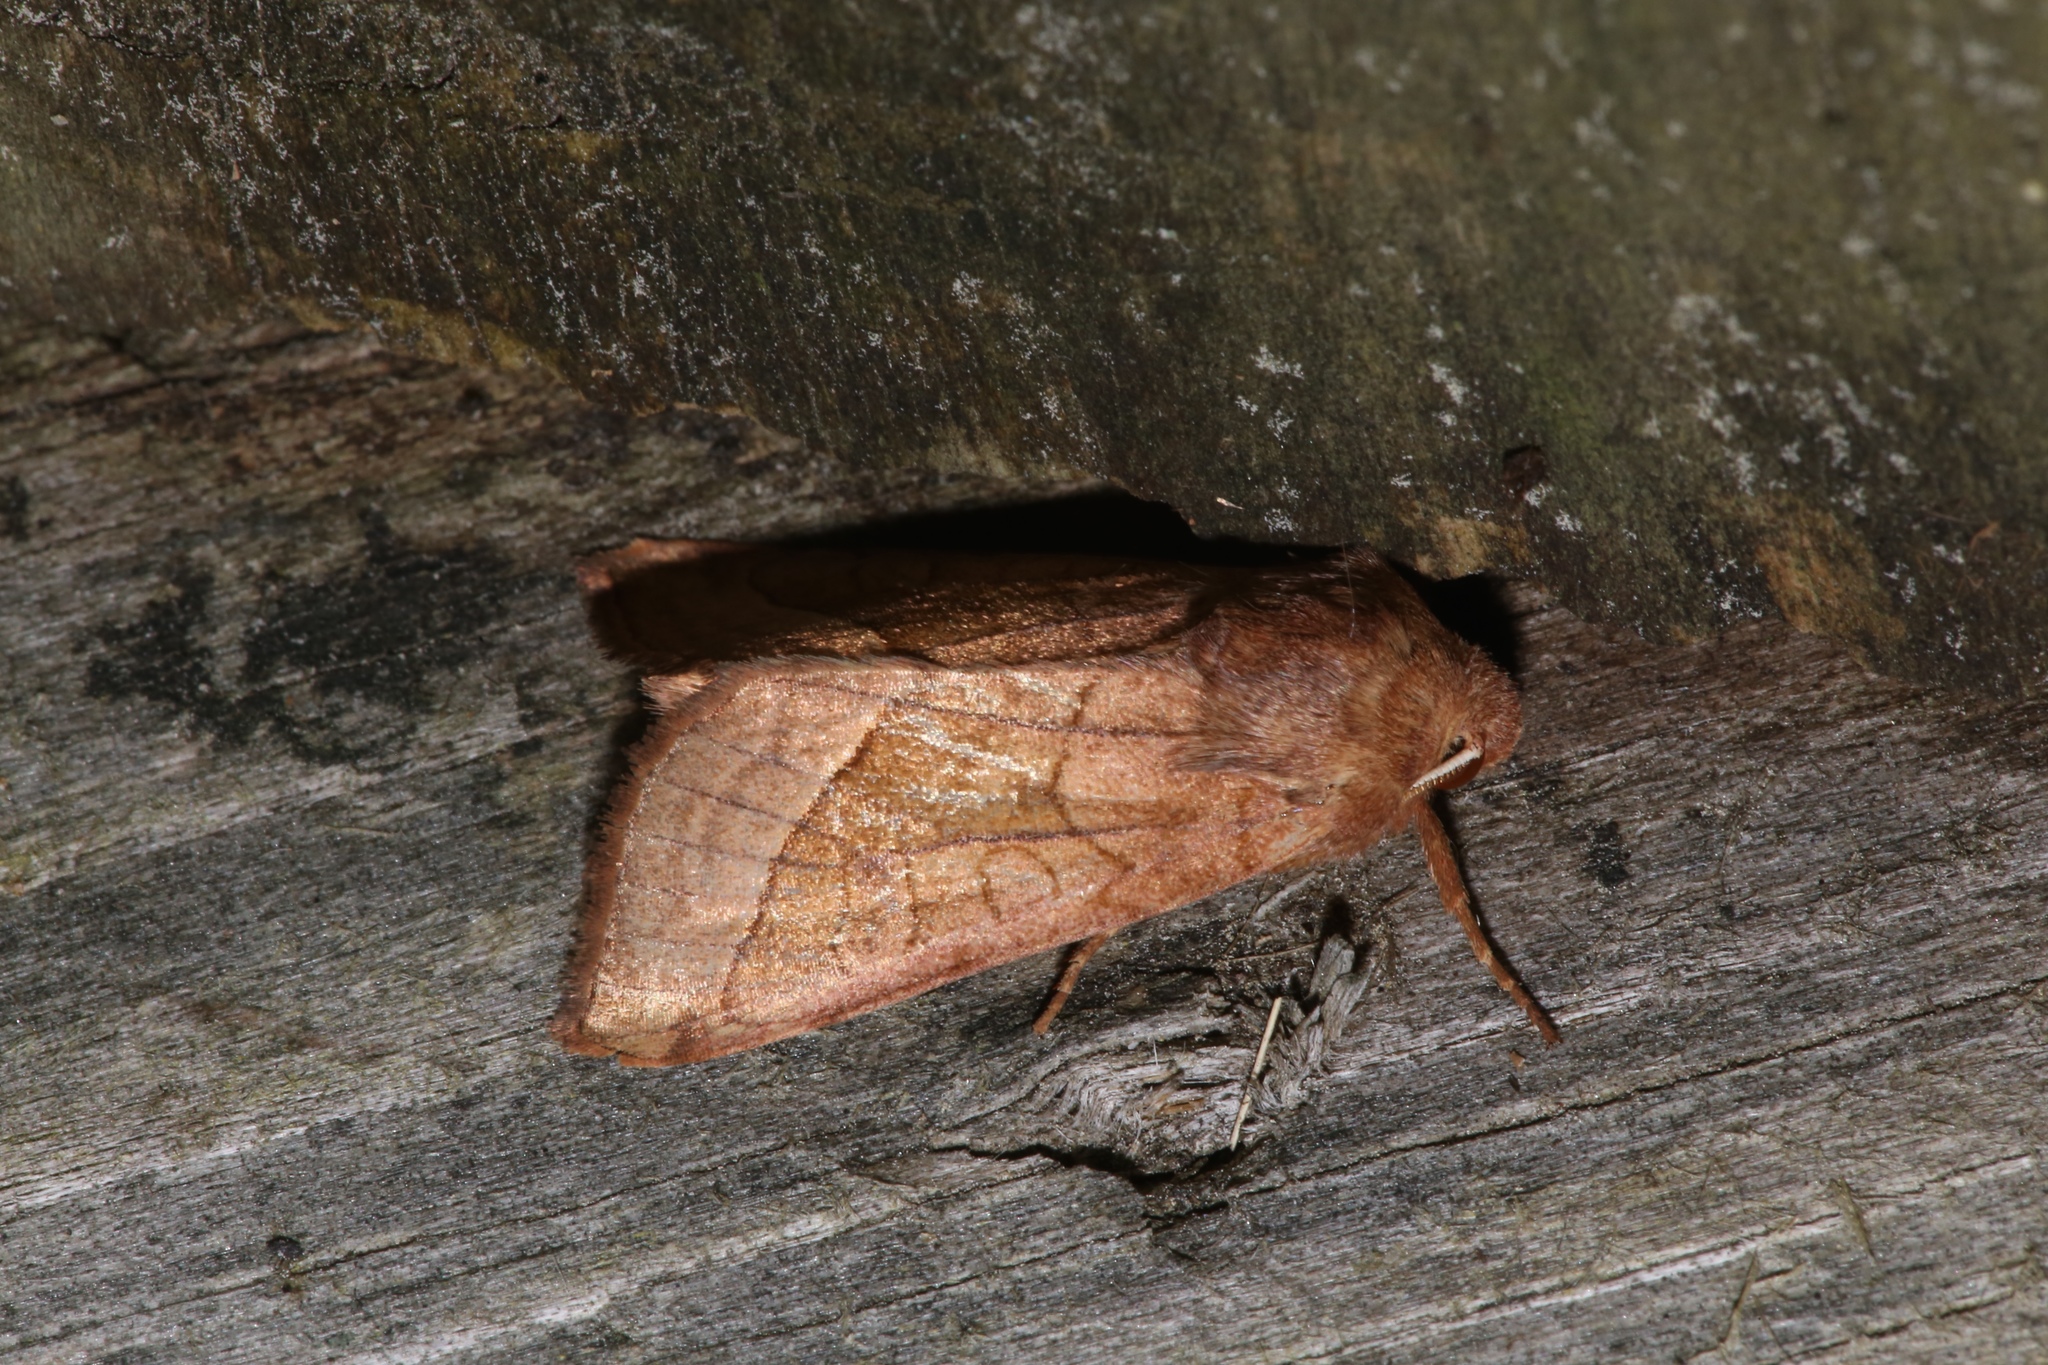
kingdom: Animalia
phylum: Arthropoda
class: Insecta
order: Lepidoptera
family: Noctuidae
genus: Hydraecia
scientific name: Hydraecia micacea
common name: Rosy rustic
